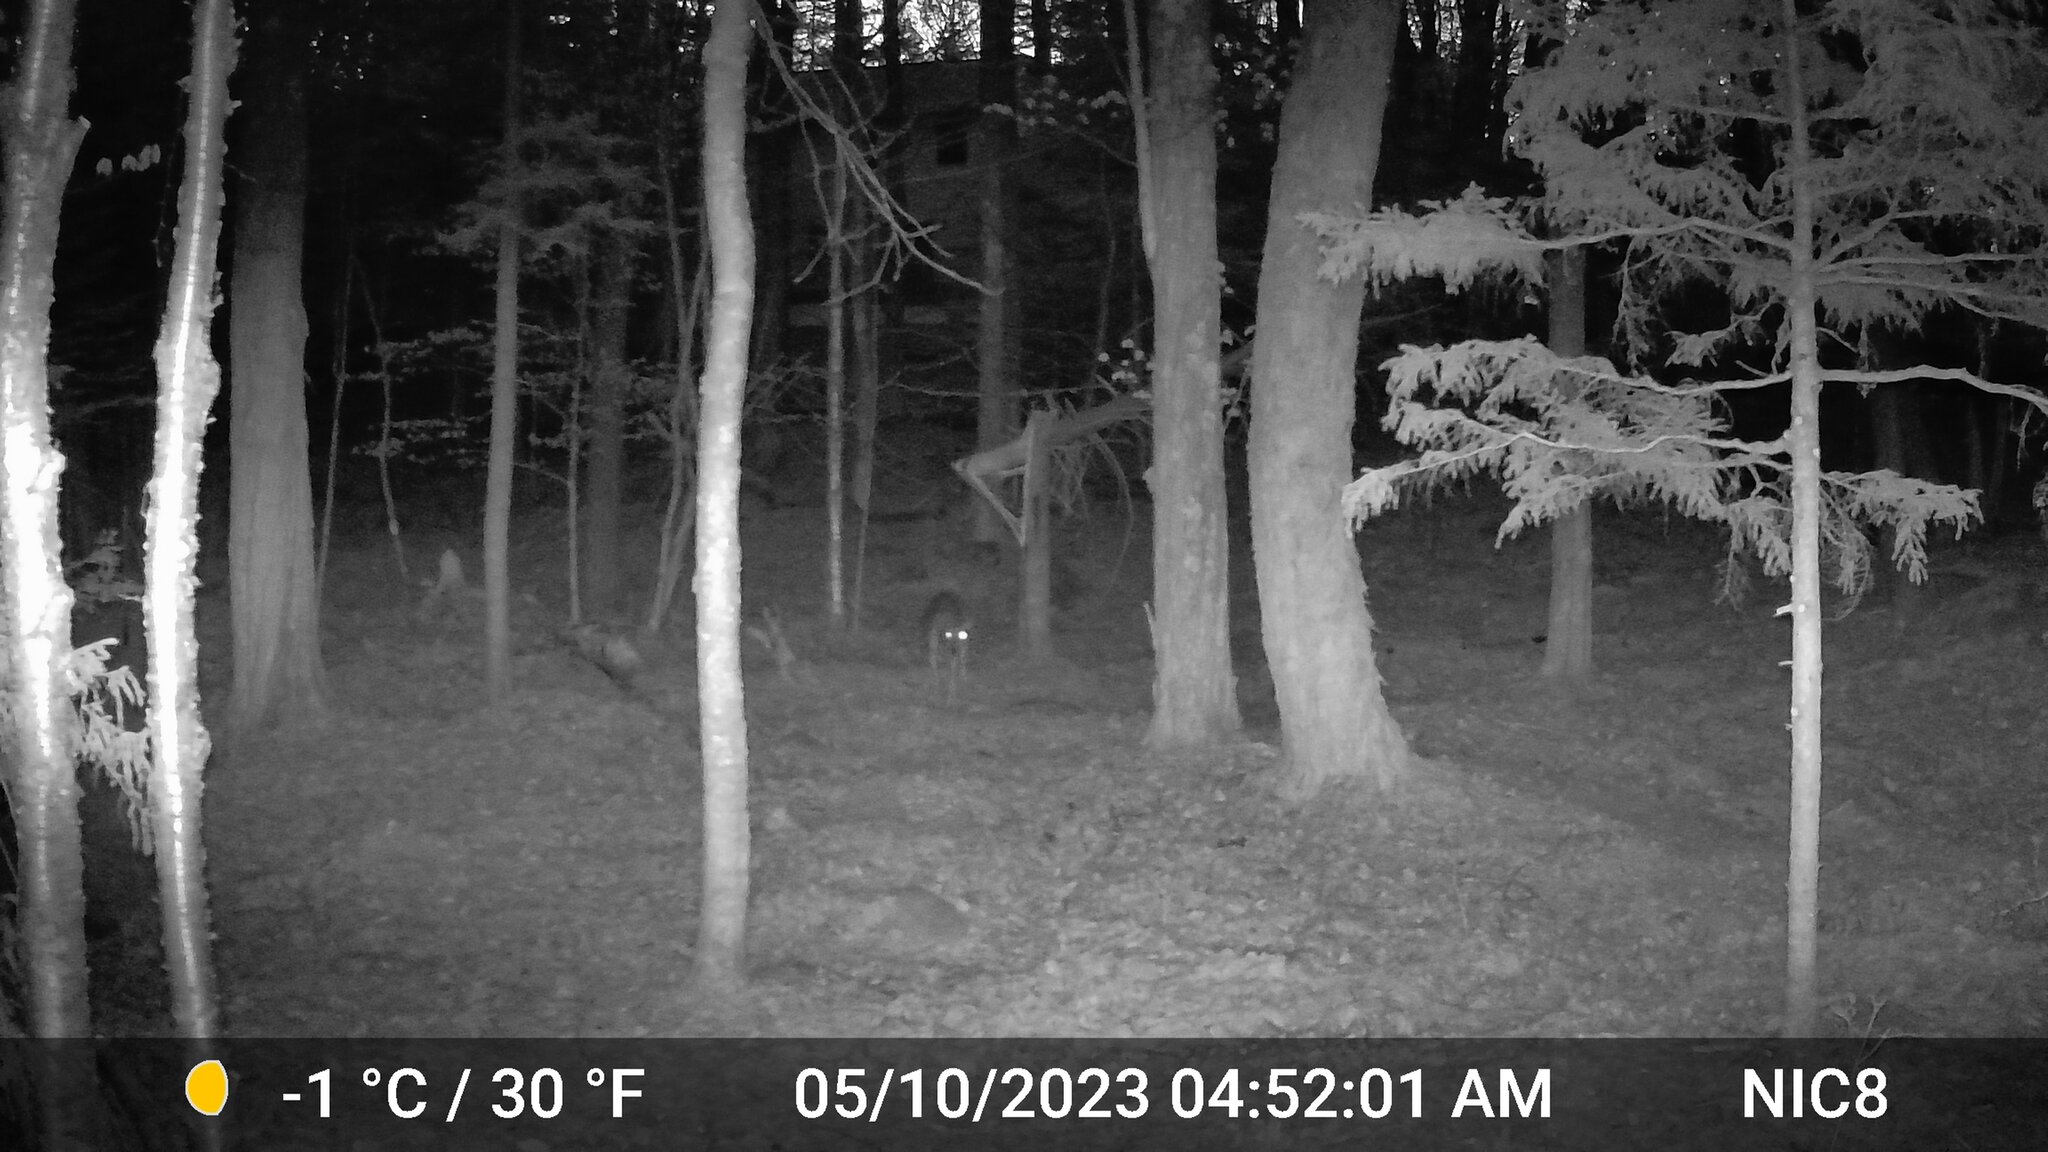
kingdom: Animalia
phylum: Chordata
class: Mammalia
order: Artiodactyla
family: Cervidae
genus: Odocoileus
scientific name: Odocoileus virginianus
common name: White-tailed deer
